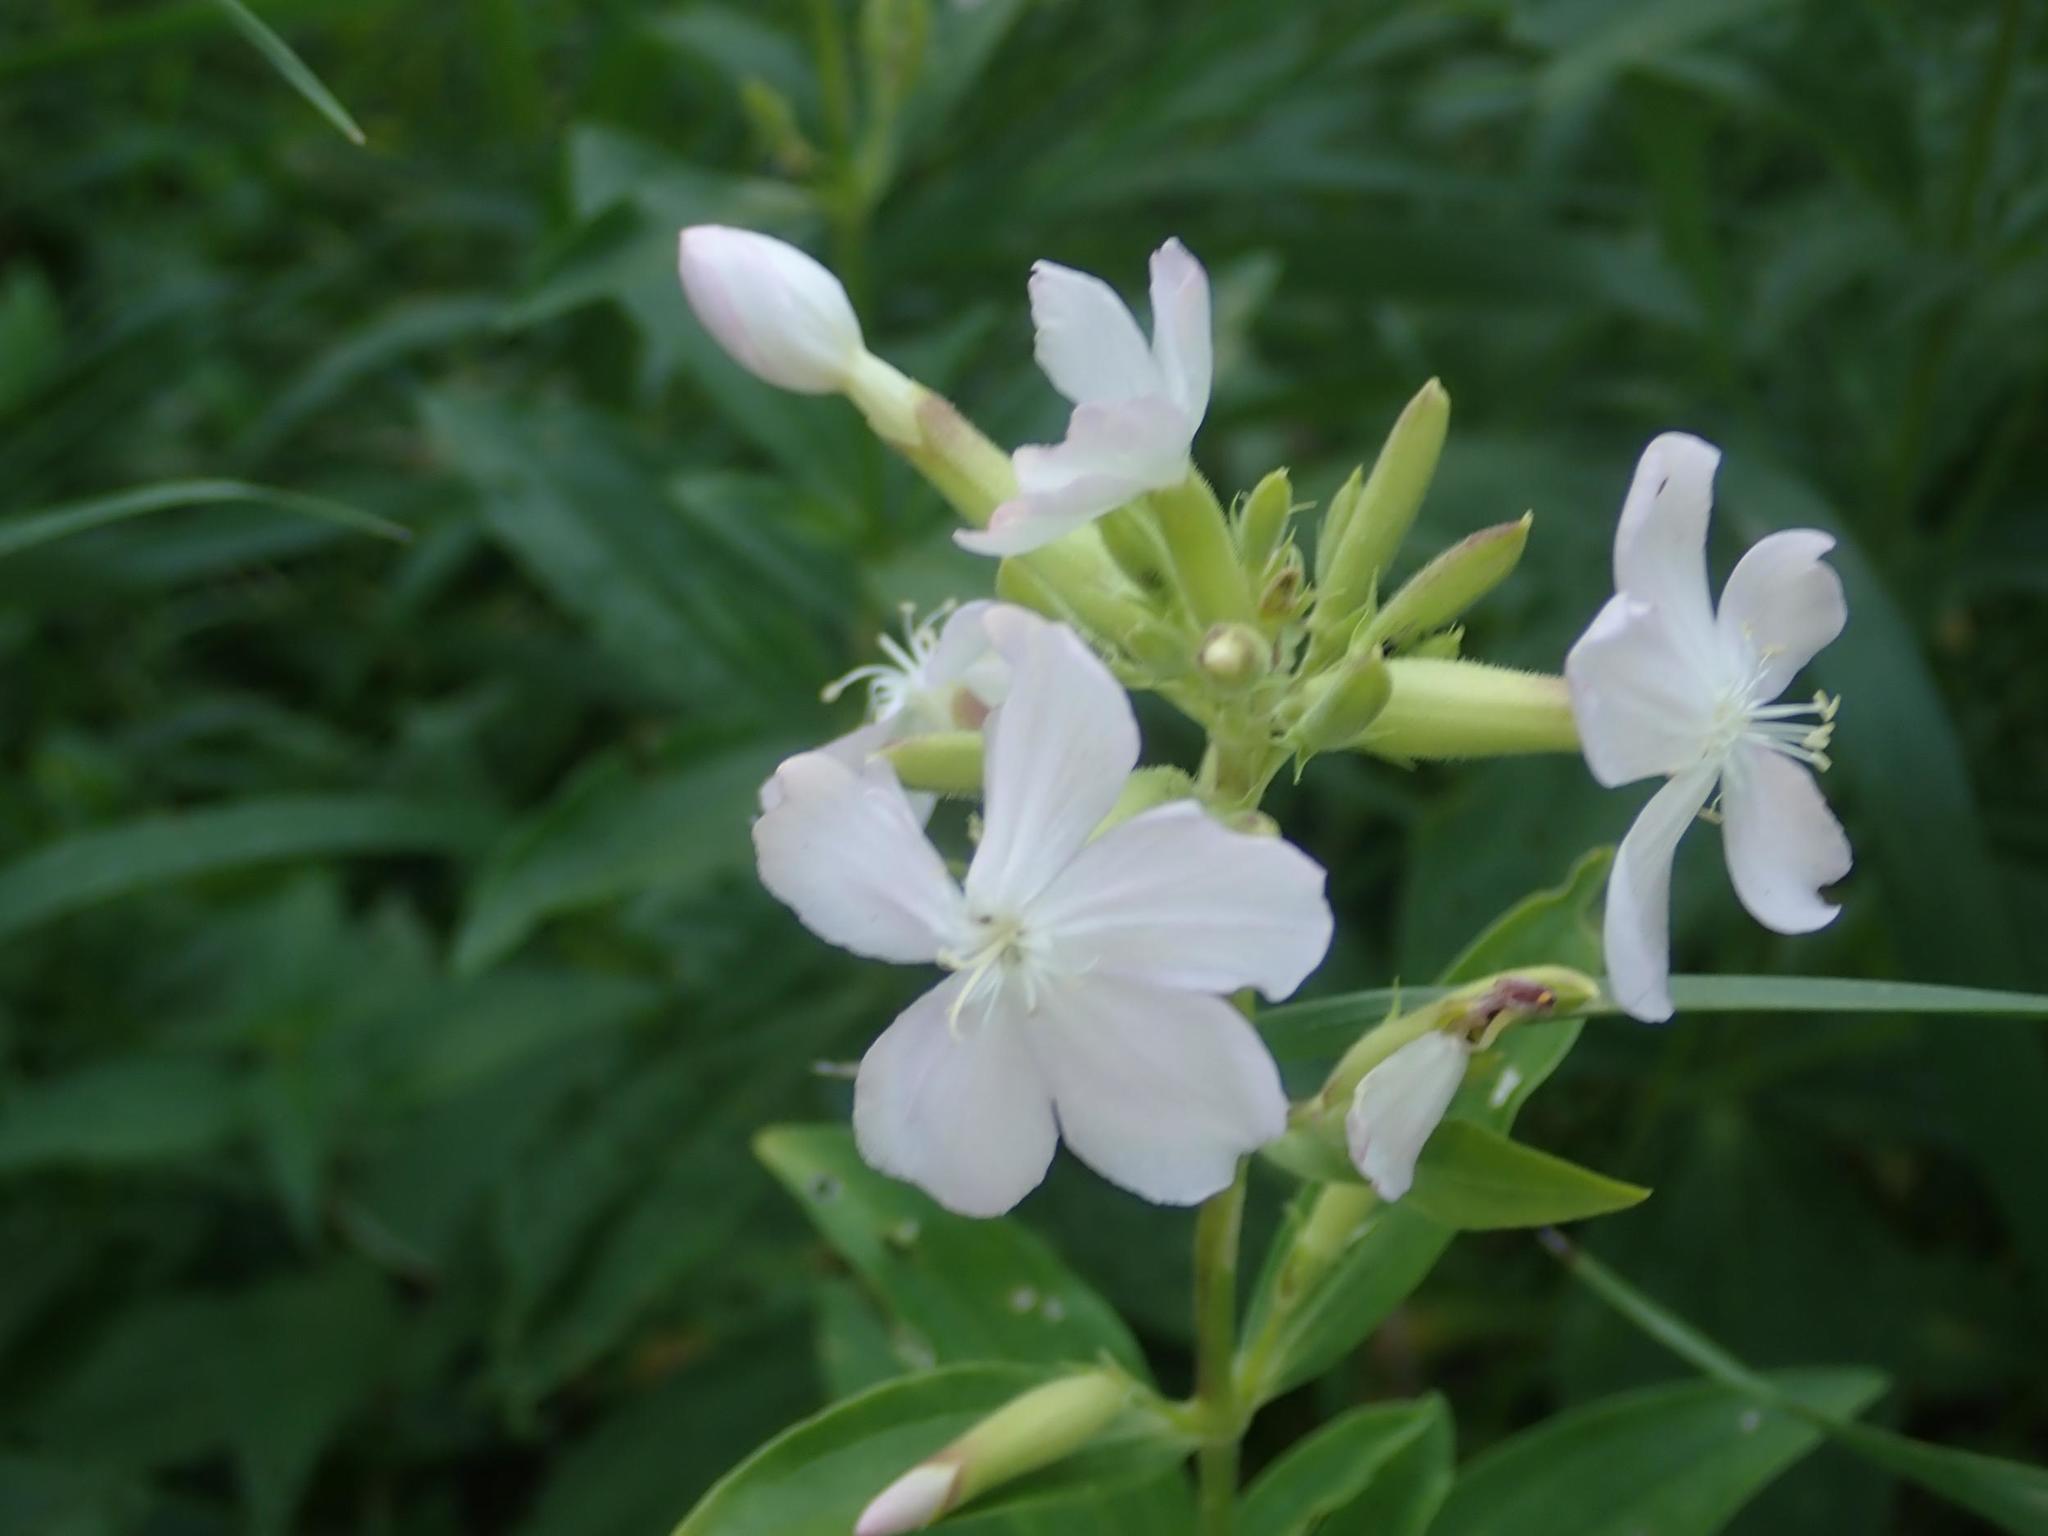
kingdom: Plantae
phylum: Tracheophyta
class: Magnoliopsida
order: Caryophyllales
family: Caryophyllaceae
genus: Saponaria
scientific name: Saponaria officinalis
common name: Soapwort
